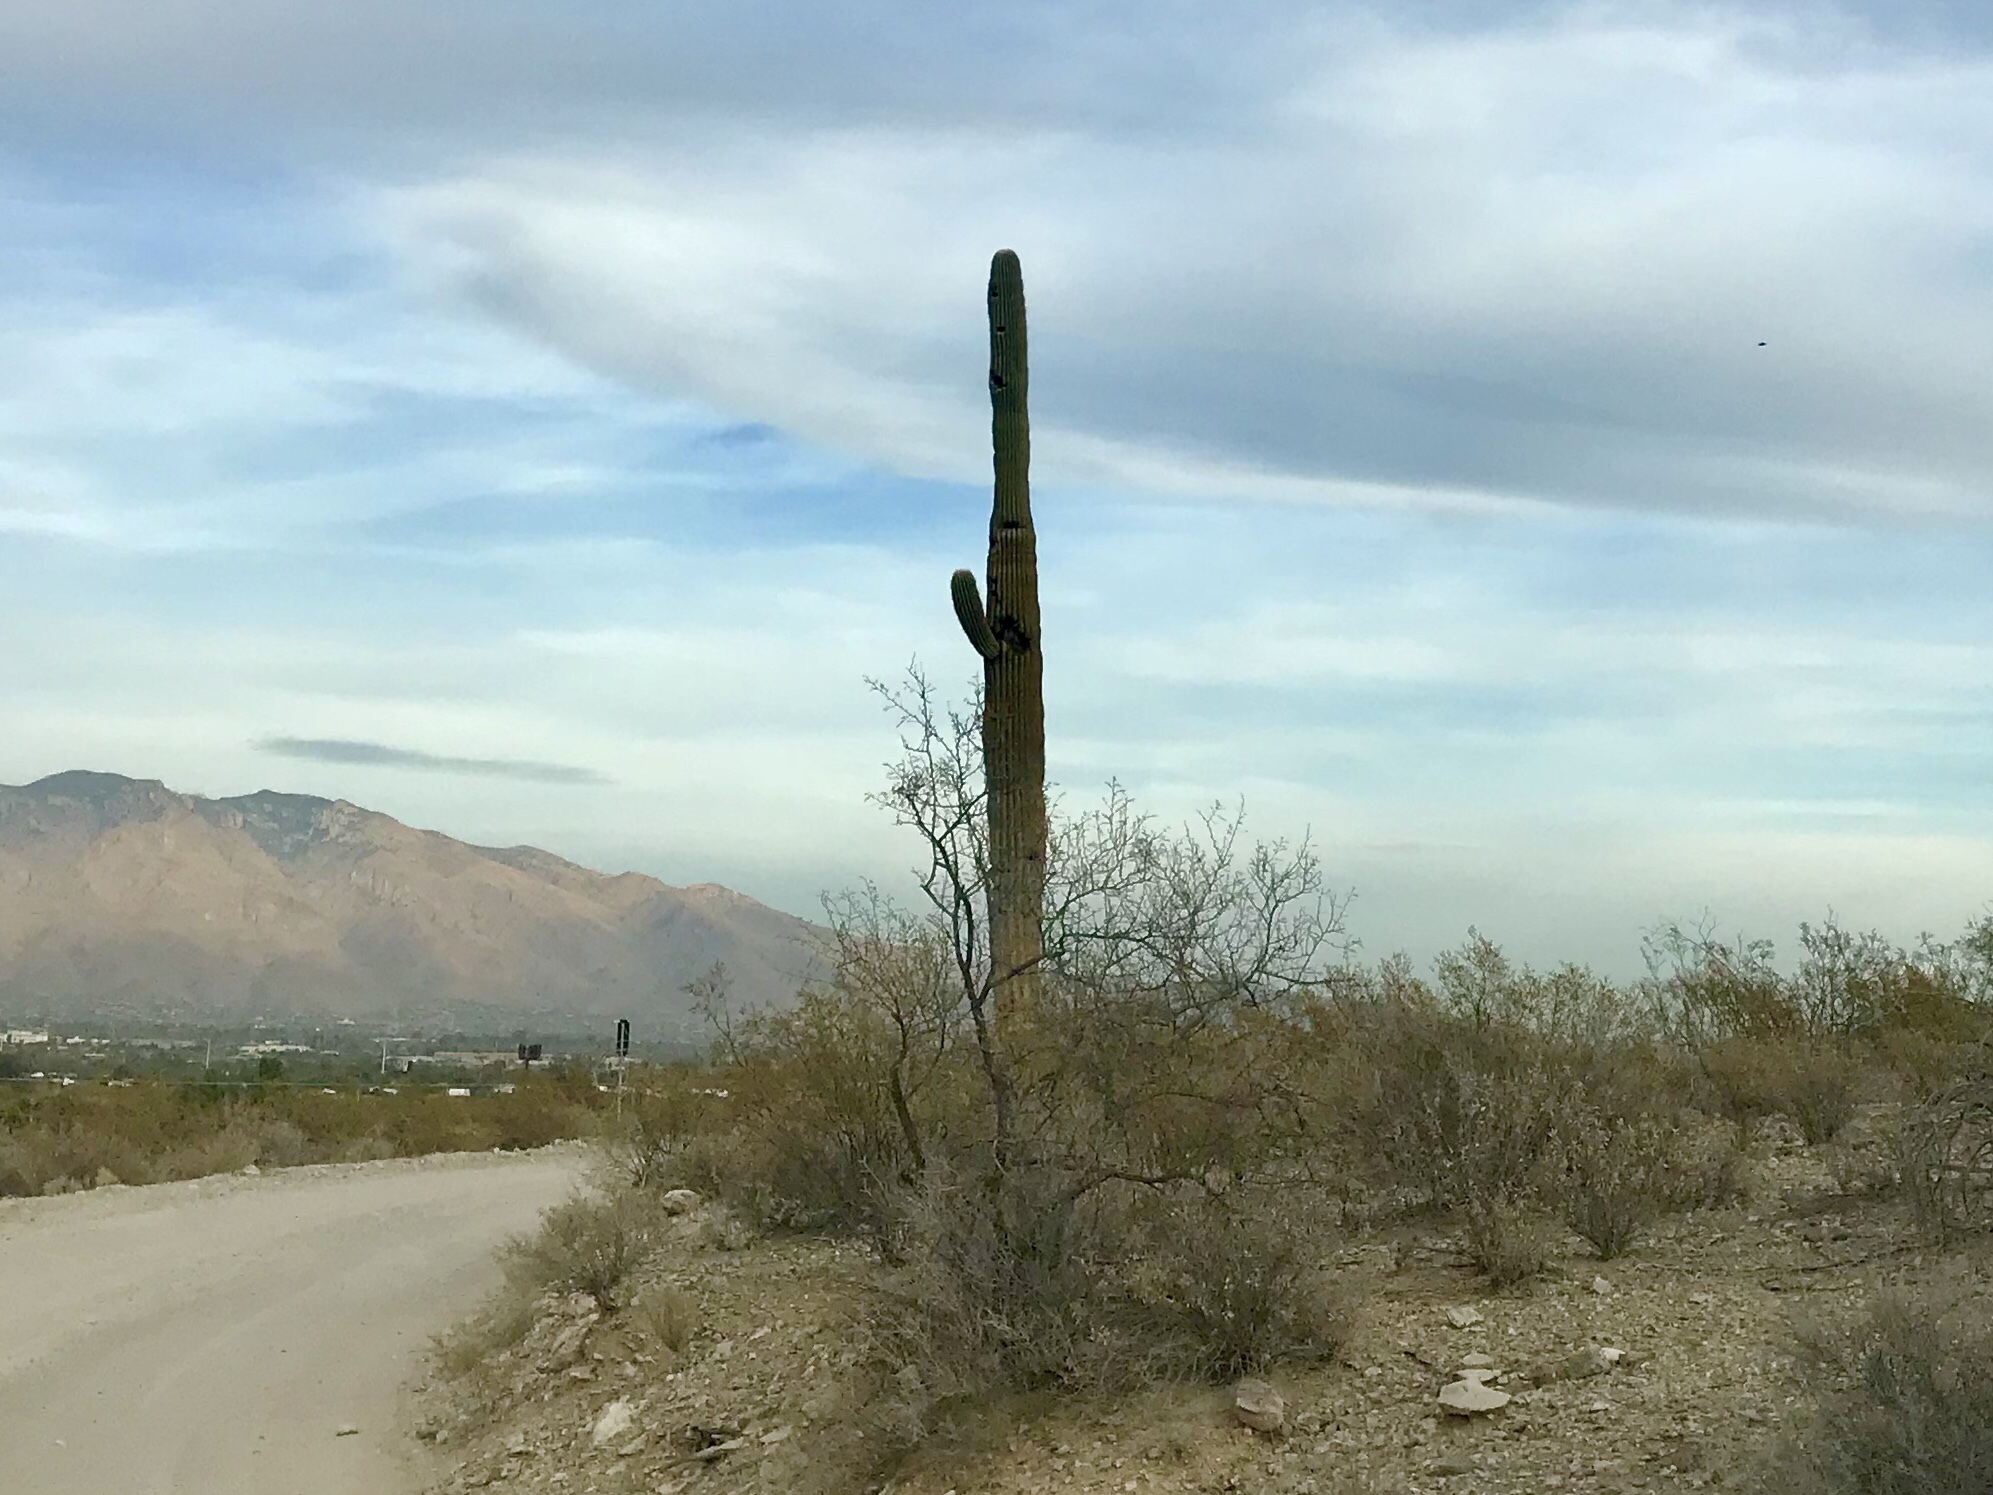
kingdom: Plantae
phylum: Tracheophyta
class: Magnoliopsida
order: Caryophyllales
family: Cactaceae
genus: Carnegiea
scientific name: Carnegiea gigantea
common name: Saguaro
